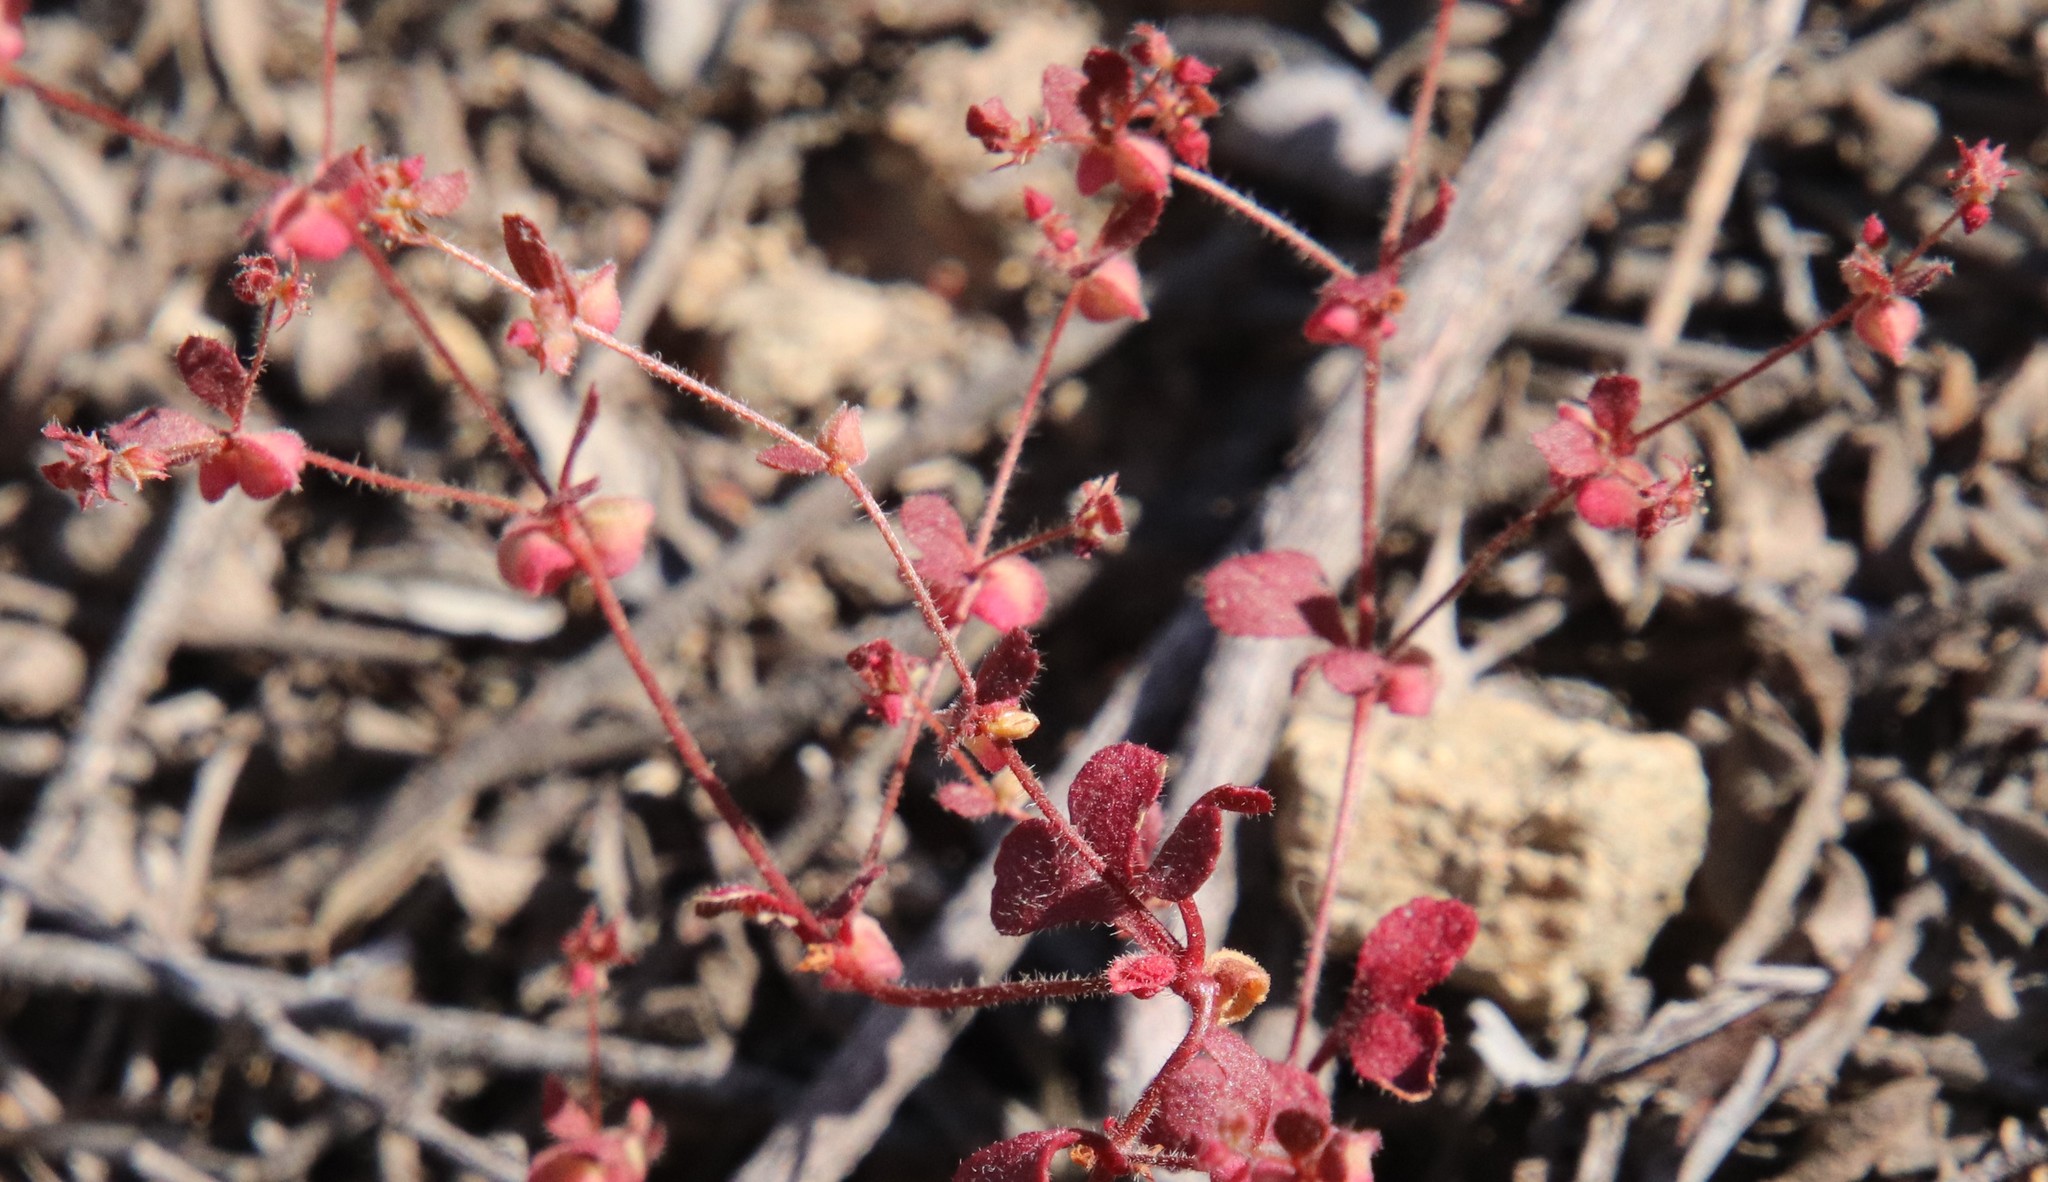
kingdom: Plantae
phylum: Tracheophyta
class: Magnoliopsida
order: Caryophyllales
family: Polygonaceae
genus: Pterostegia
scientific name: Pterostegia drymarioides
